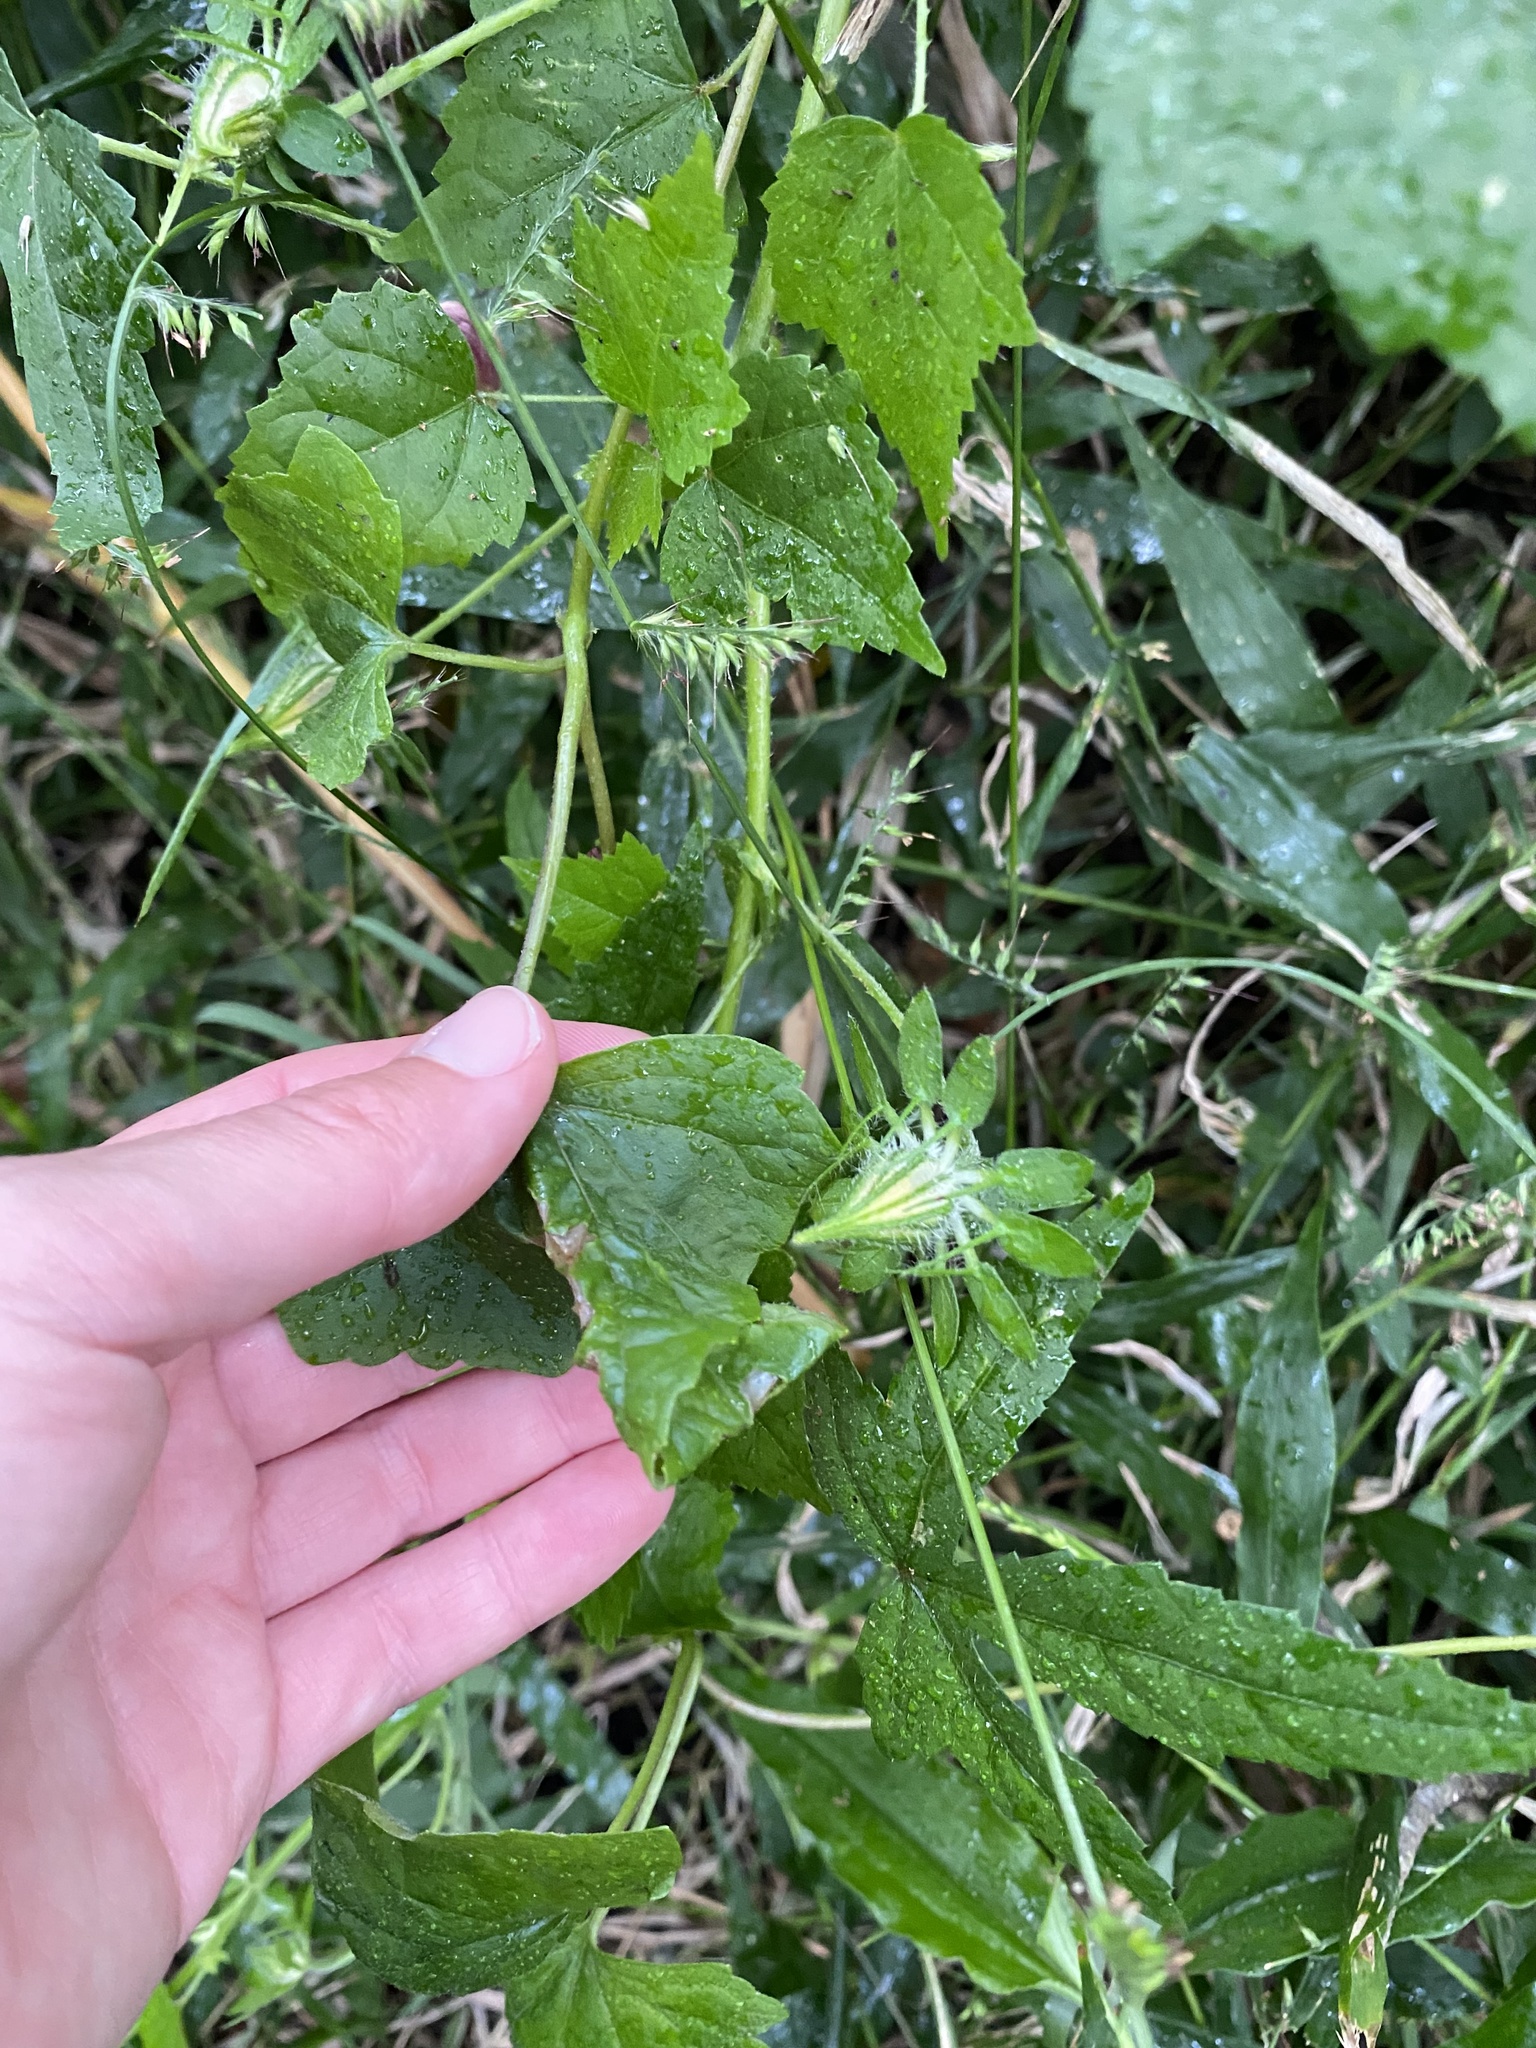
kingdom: Plantae
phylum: Tracheophyta
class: Magnoliopsida
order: Malvales
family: Malvaceae
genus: Hibiscus
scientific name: Hibiscus surattensis
